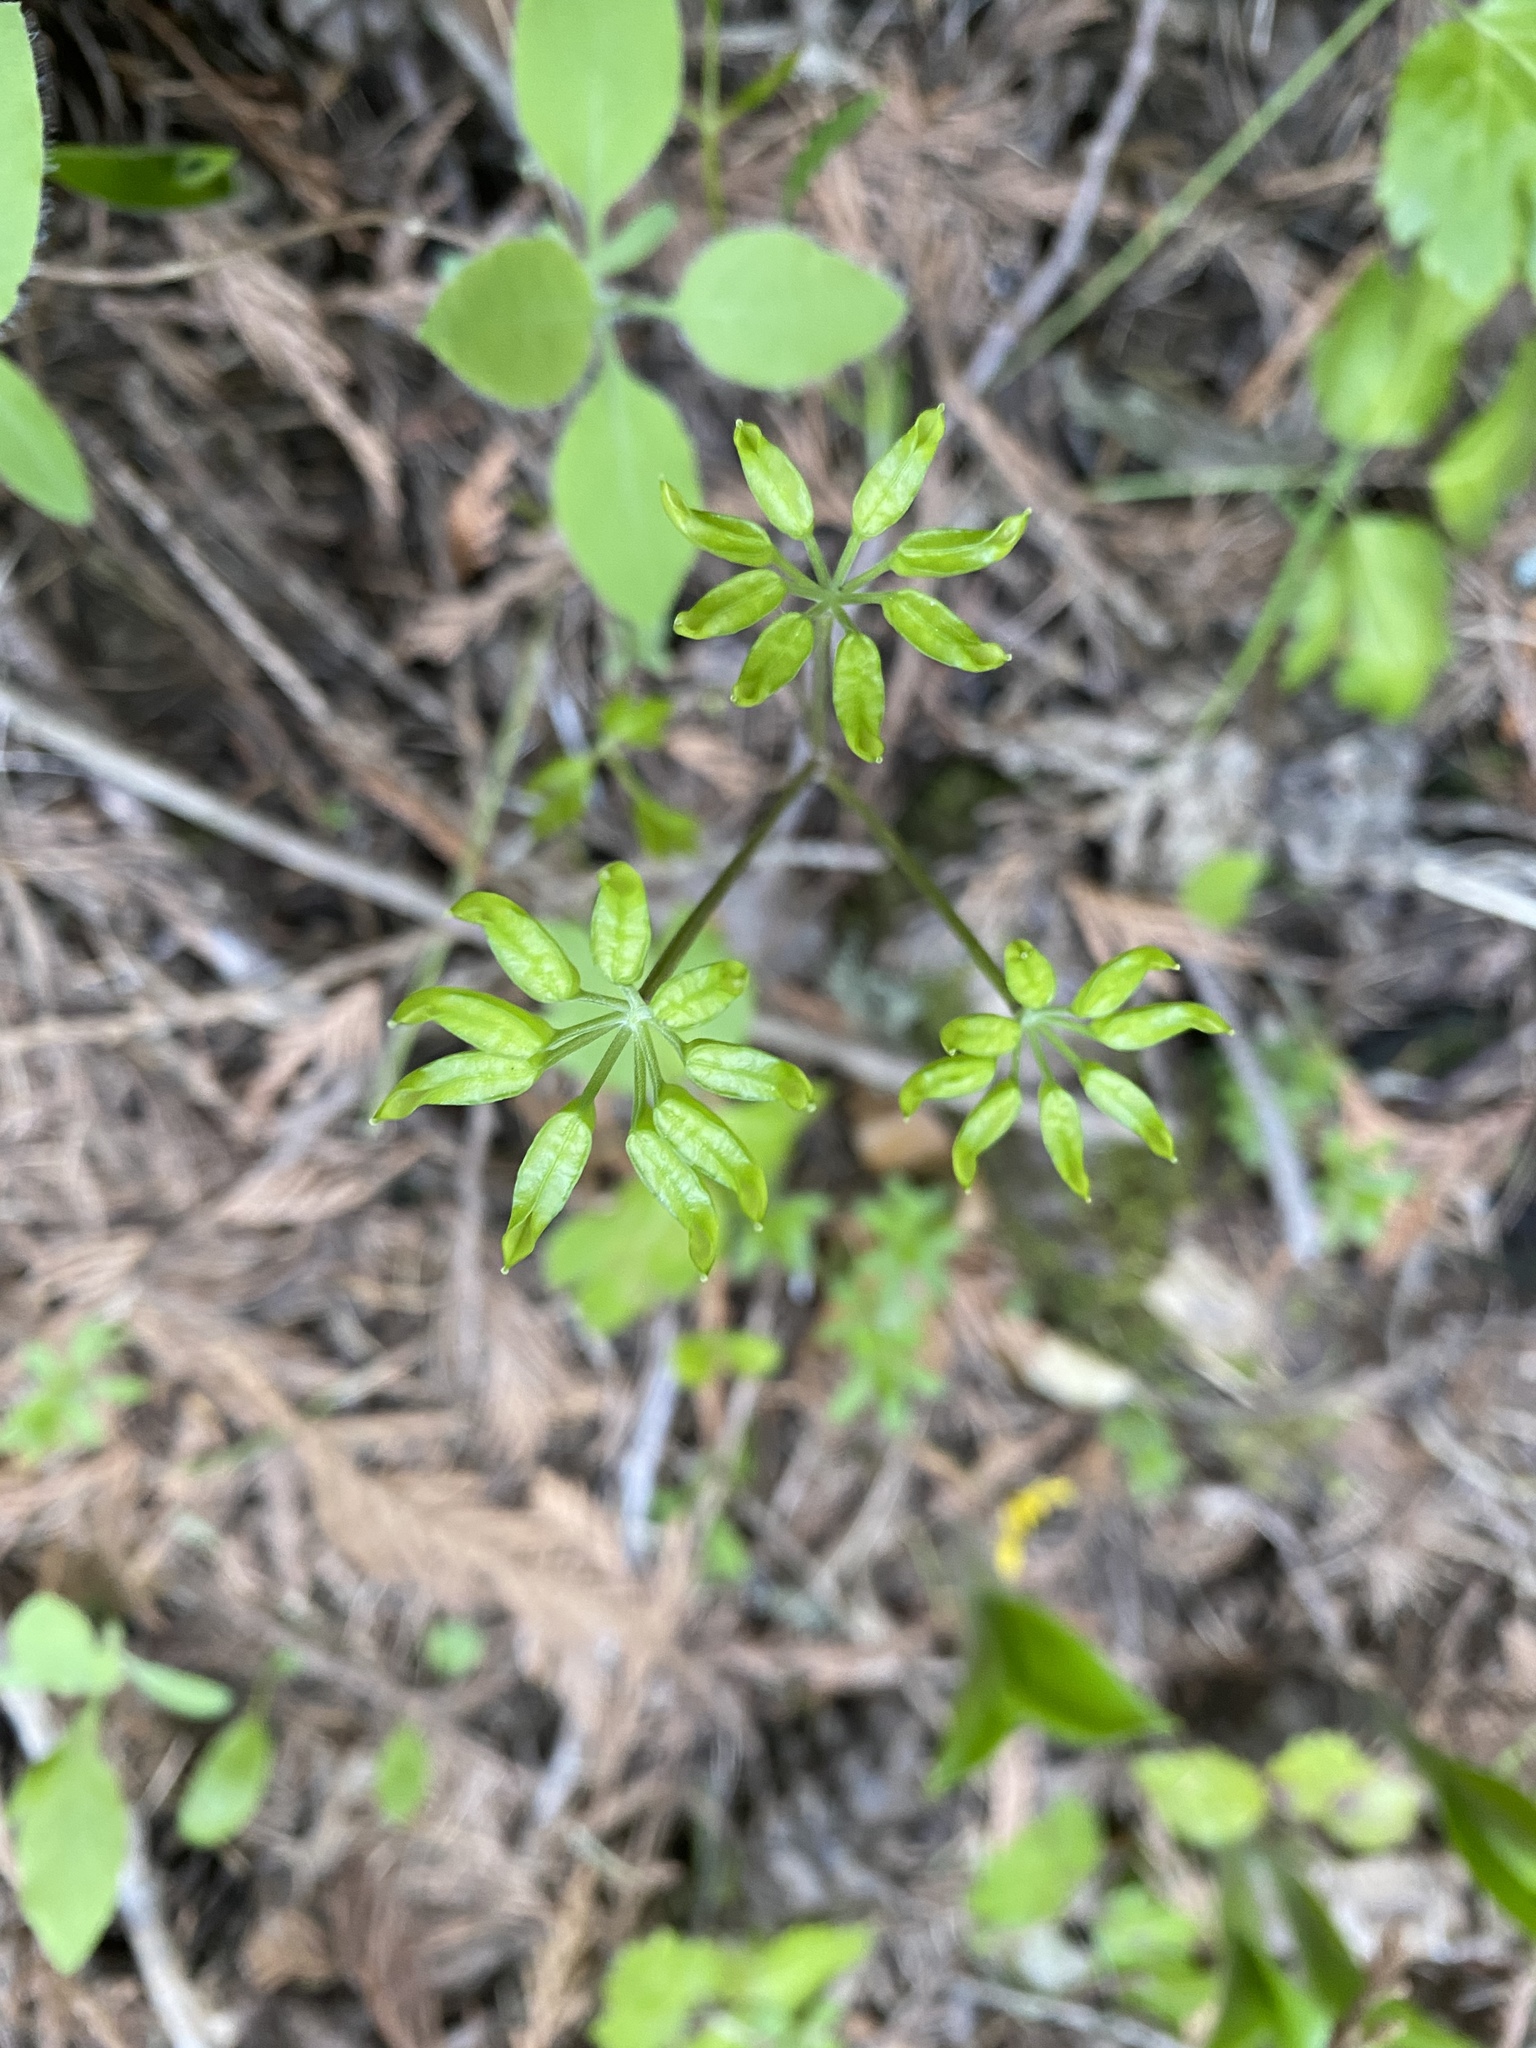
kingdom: Plantae
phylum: Tracheophyta
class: Magnoliopsida
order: Ranunculales
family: Ranunculaceae
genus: Coptis
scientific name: Coptis occidentalis
